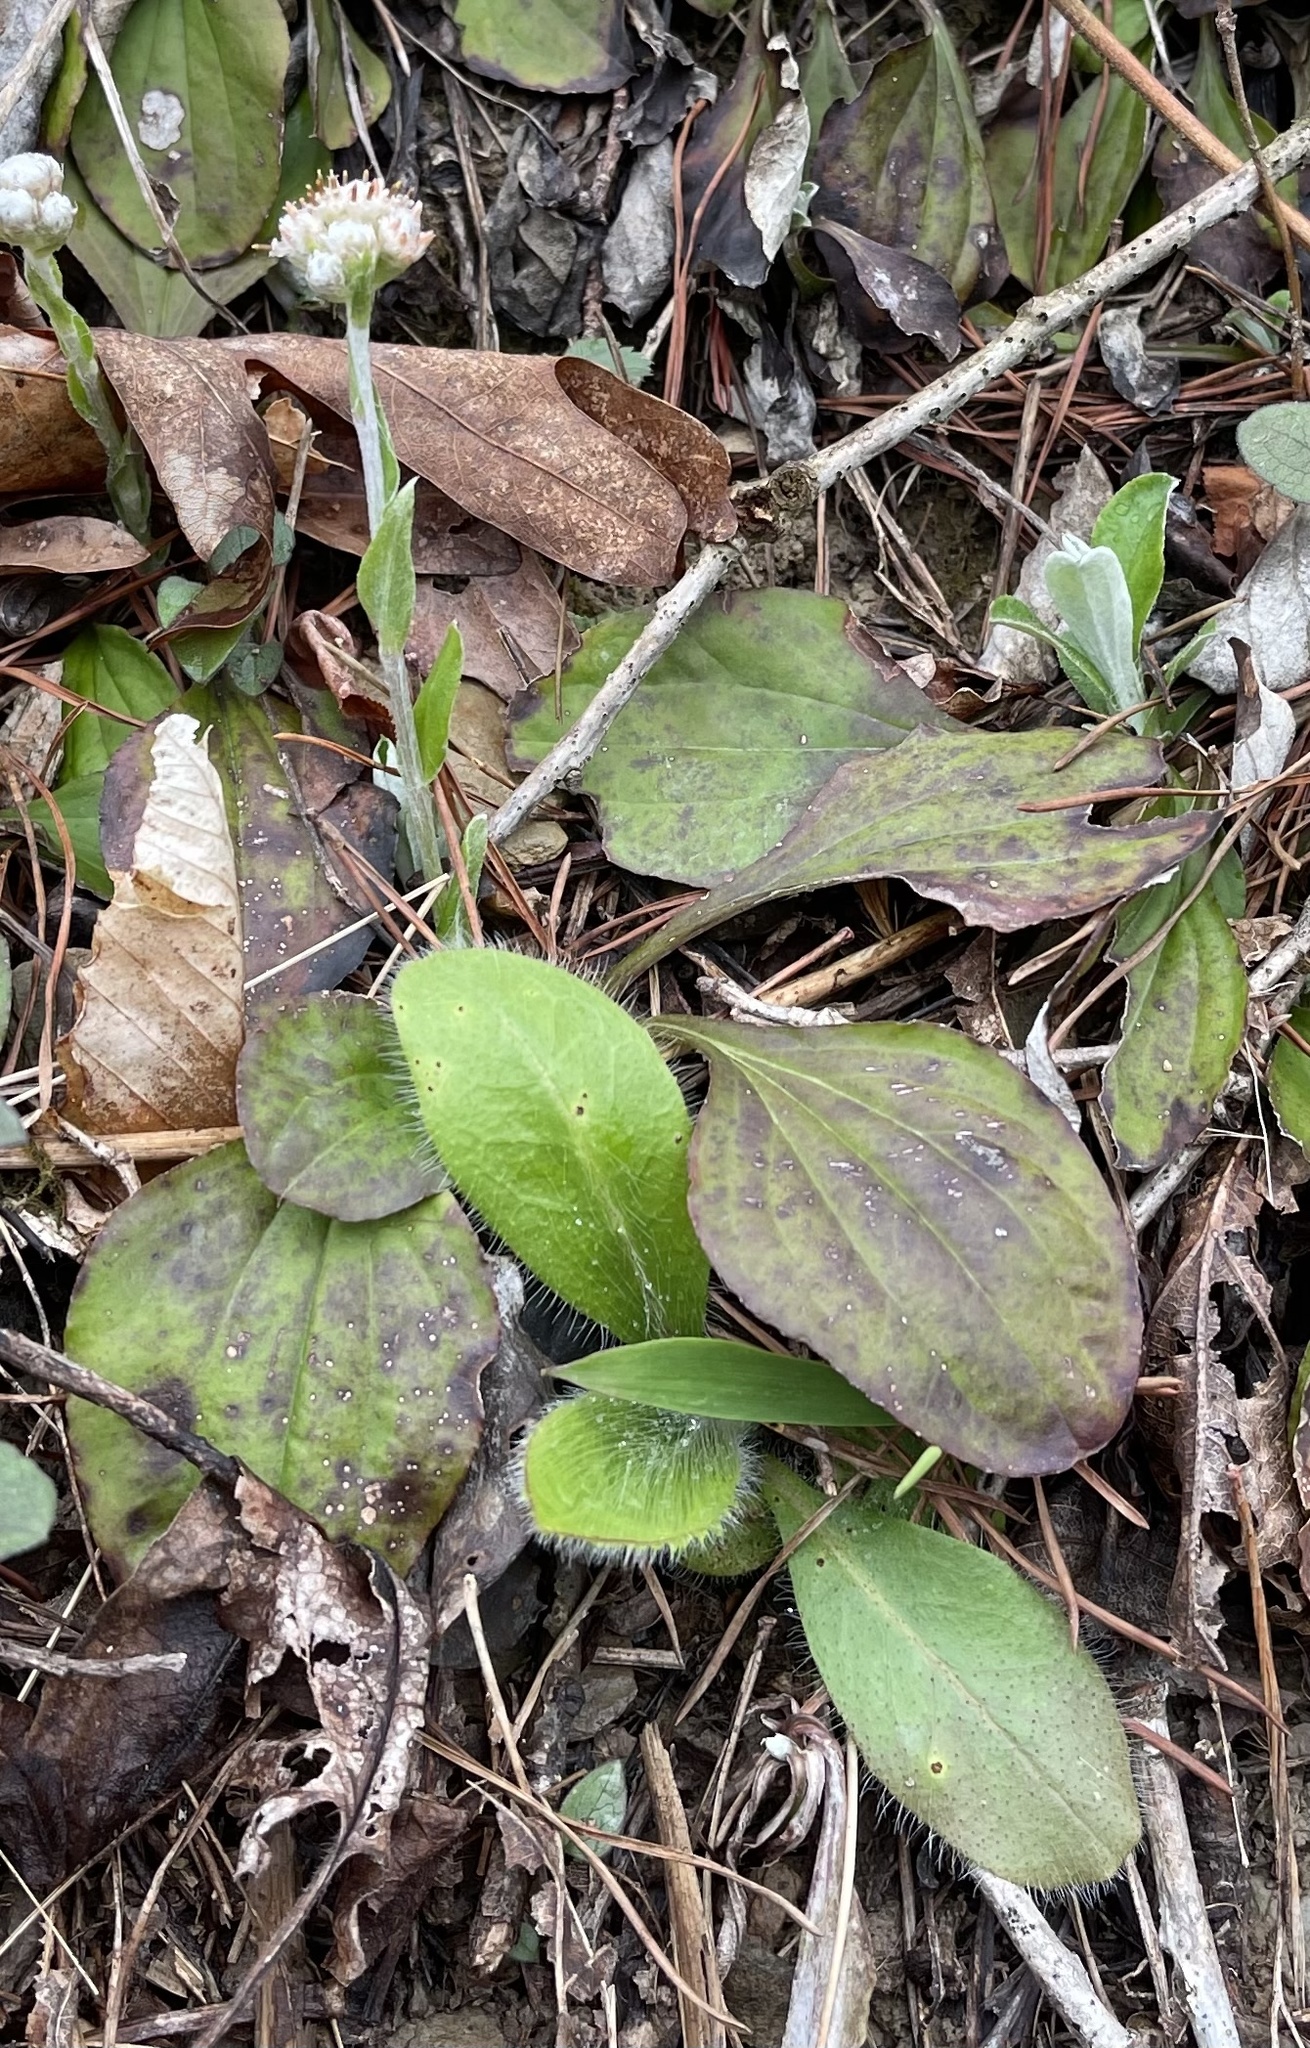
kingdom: Plantae
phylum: Tracheophyta
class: Magnoliopsida
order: Asterales
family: Asteraceae
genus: Antennaria
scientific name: Antennaria plantaginifolia
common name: Plantain-leaved pussytoes
